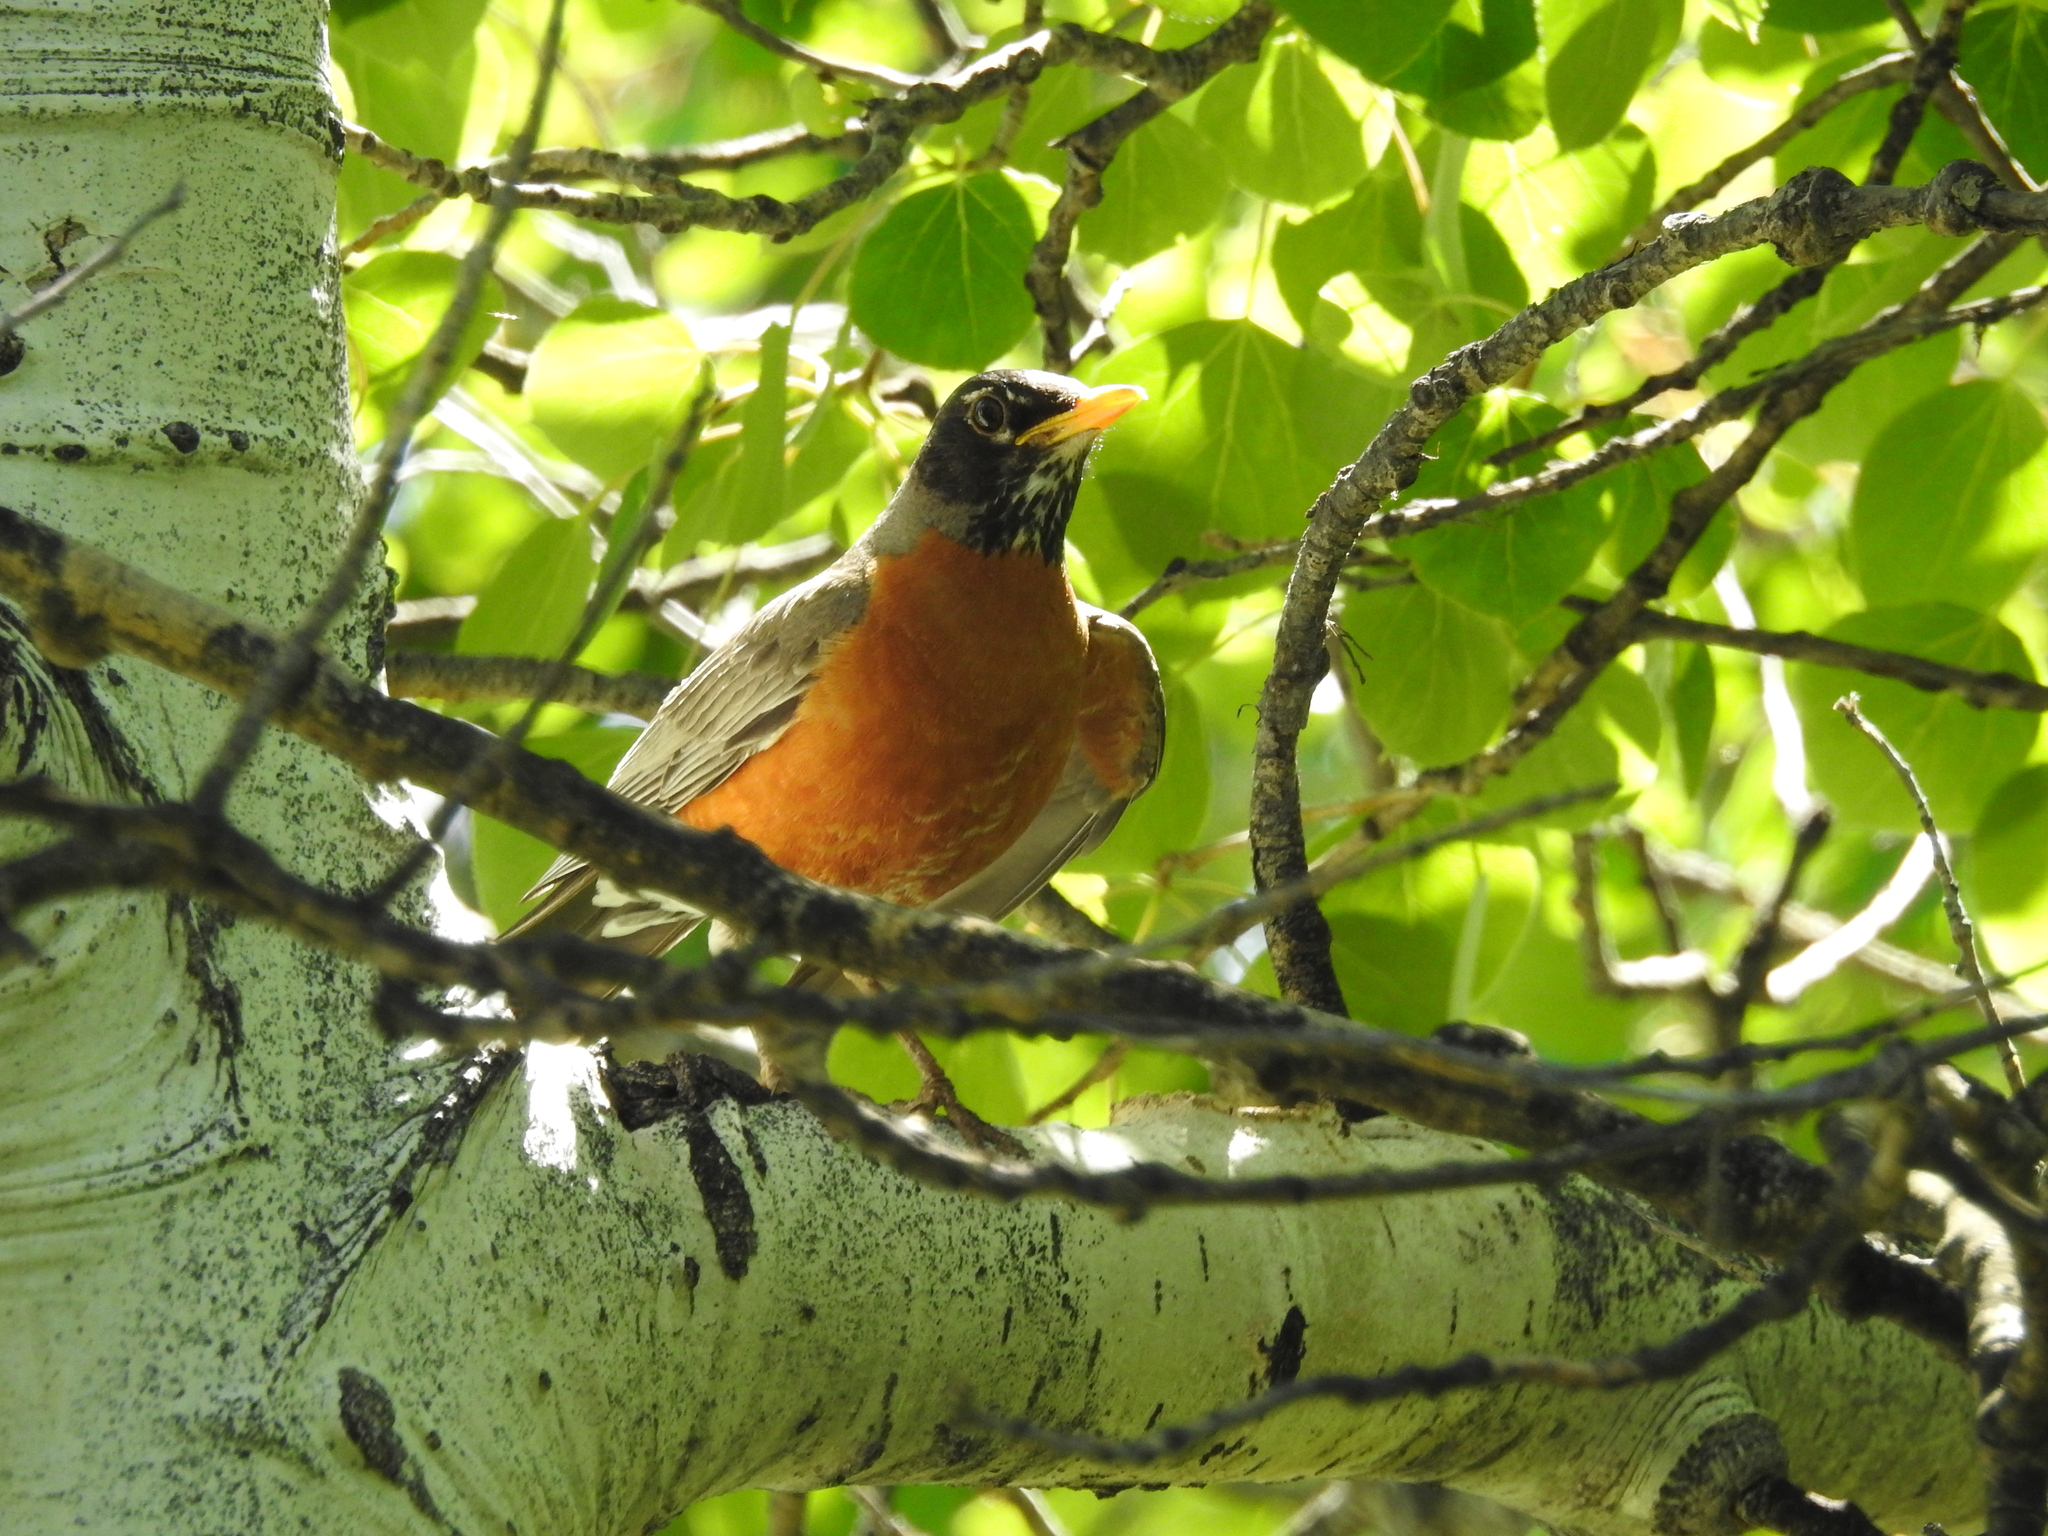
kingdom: Animalia
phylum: Chordata
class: Aves
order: Passeriformes
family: Turdidae
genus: Turdus
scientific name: Turdus migratorius
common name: American robin
